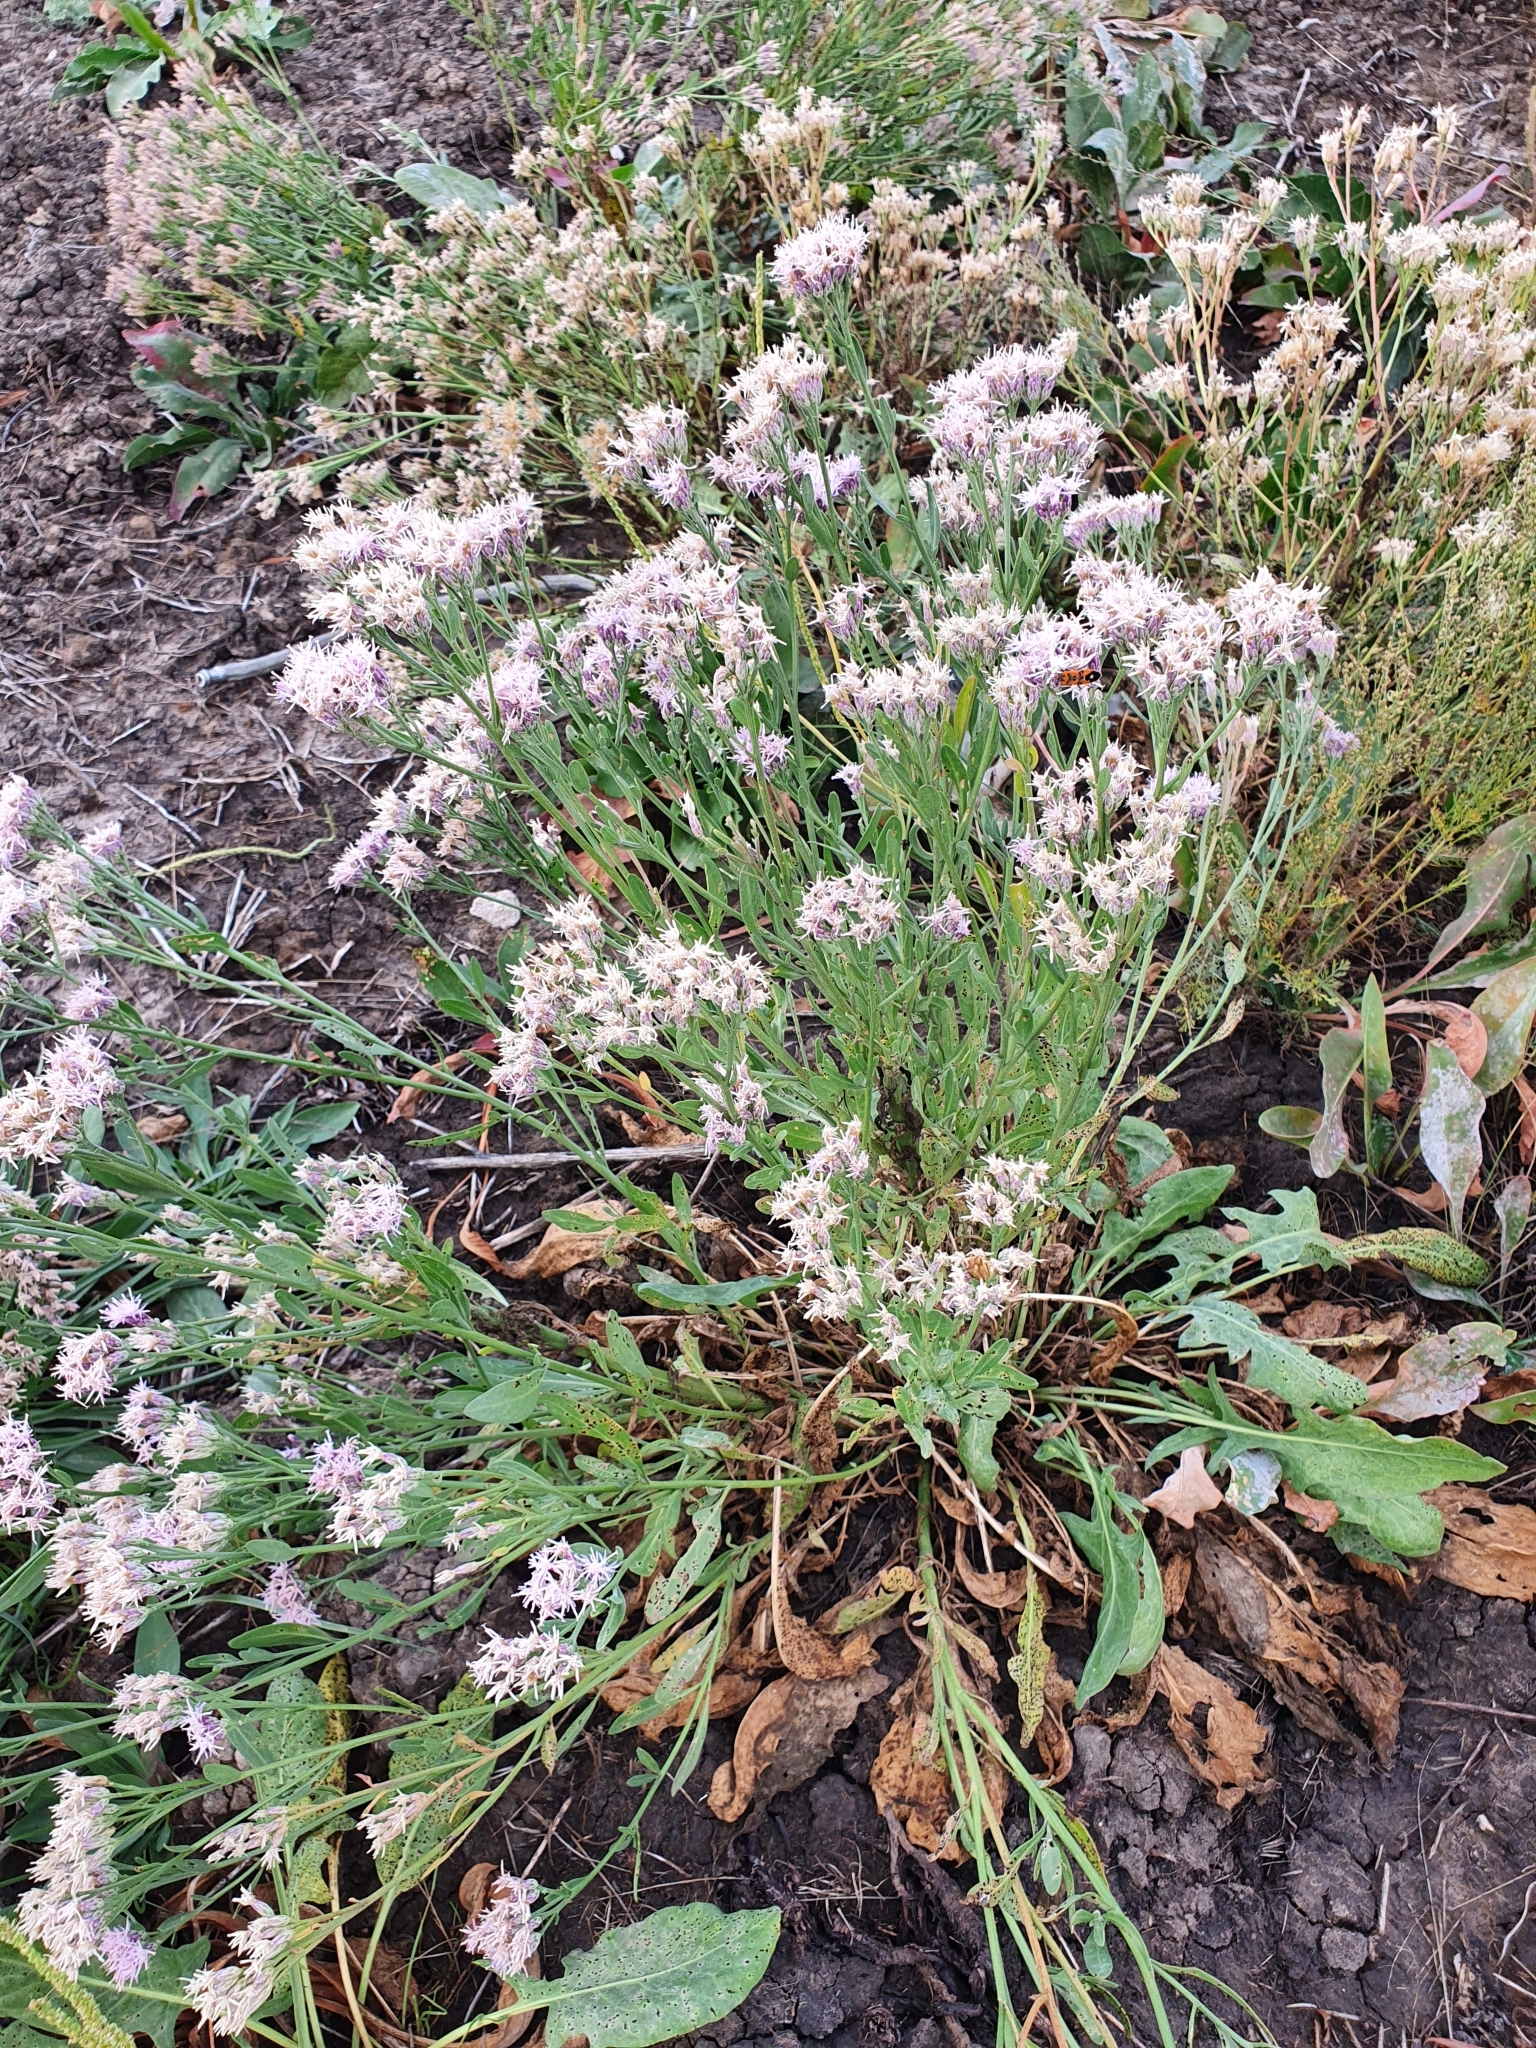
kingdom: Plantae
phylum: Tracheophyta
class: Magnoliopsida
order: Asterales
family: Asteraceae
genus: Saussurea
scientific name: Saussurea salsa
